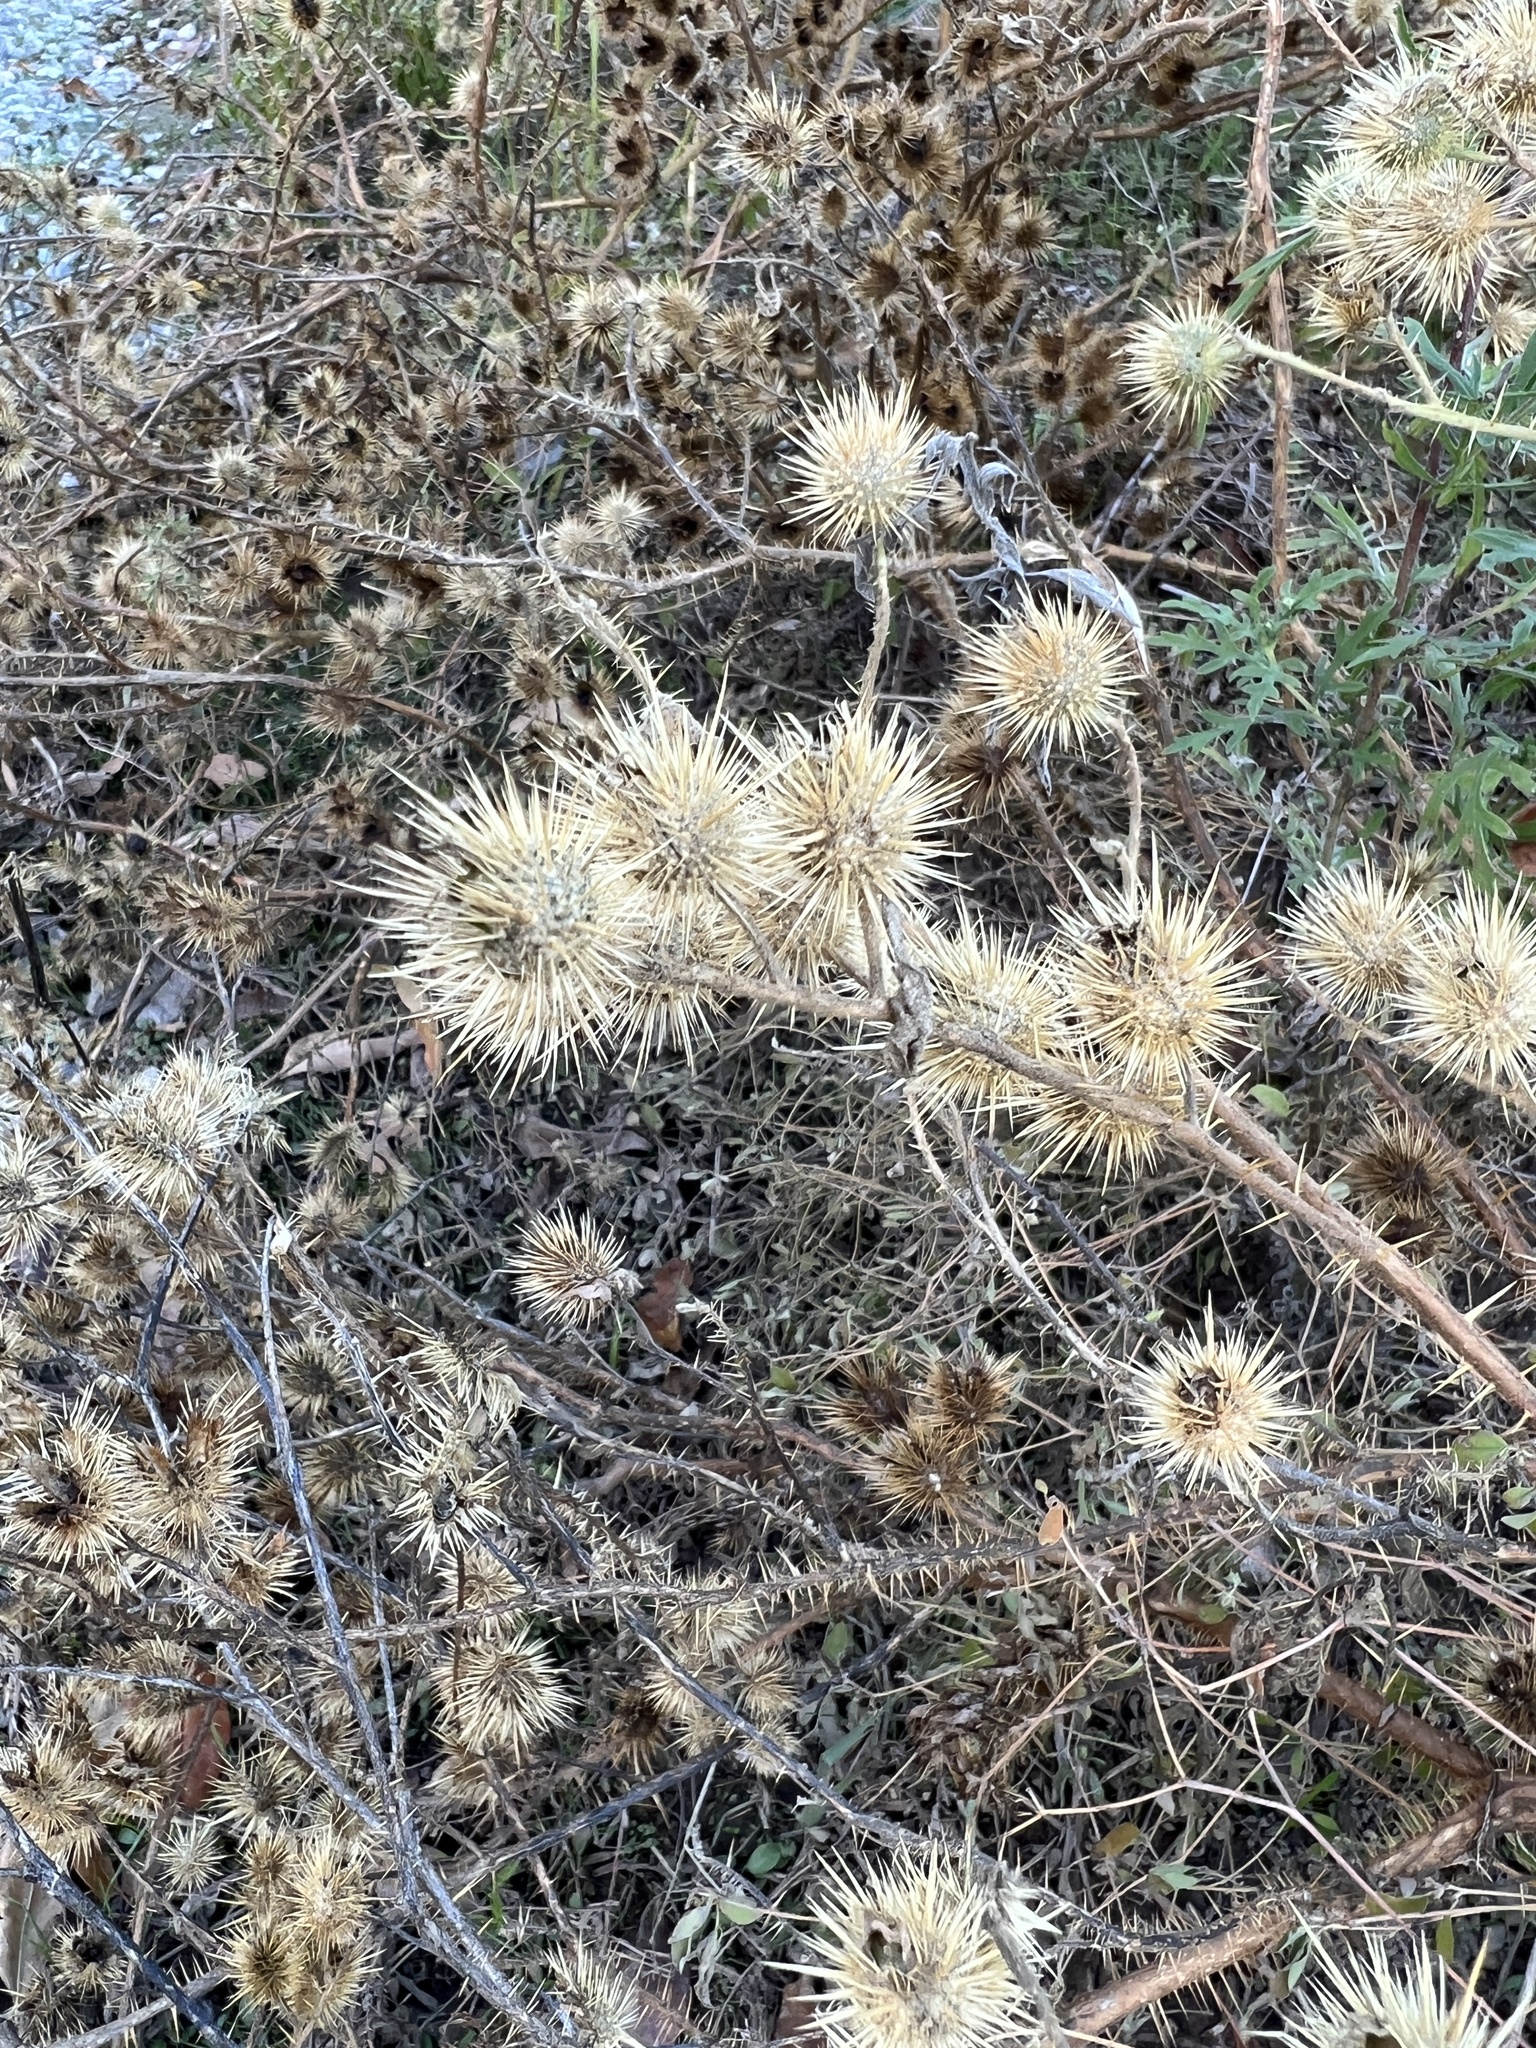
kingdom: Plantae
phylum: Tracheophyta
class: Magnoliopsida
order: Solanales
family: Solanaceae
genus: Solanum
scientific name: Solanum angustifolium
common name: Buffalobur nightshade
